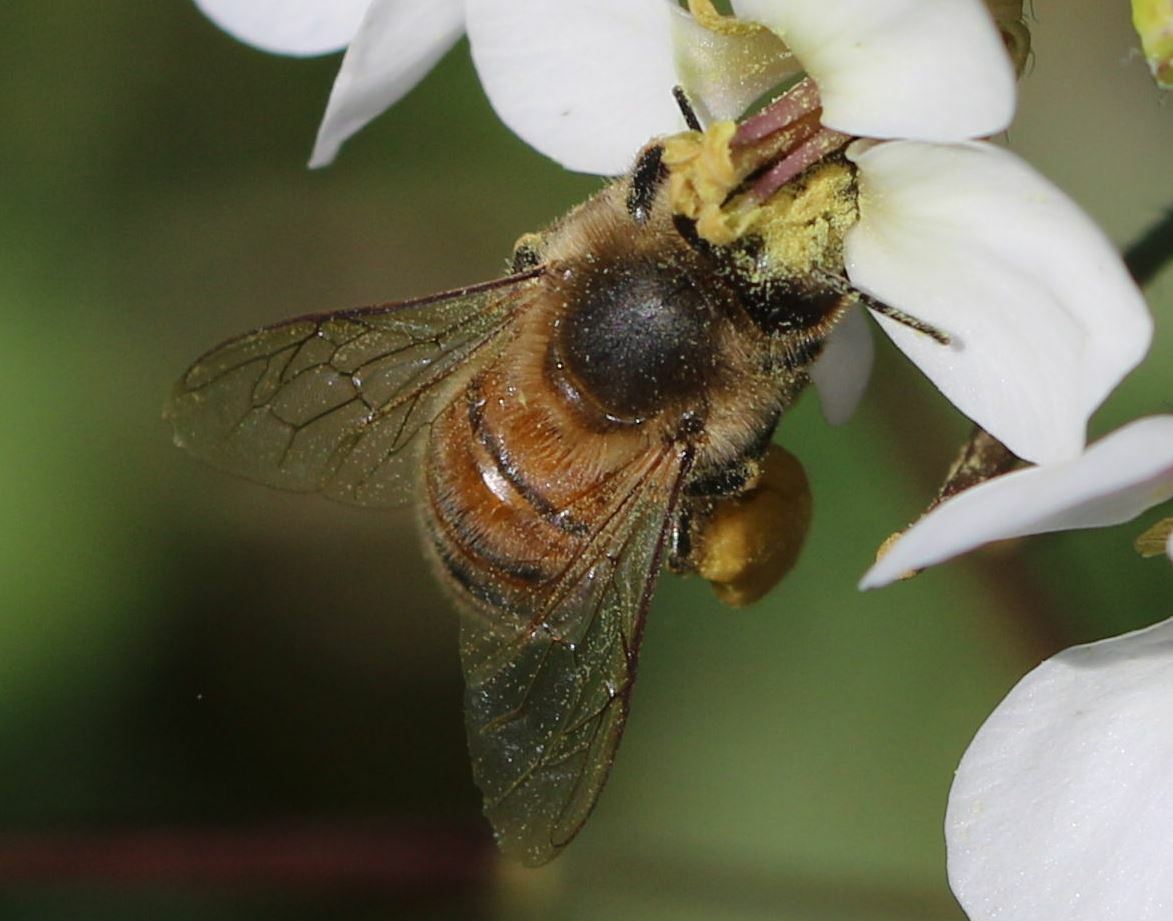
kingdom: Animalia
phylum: Arthropoda
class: Insecta
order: Hymenoptera
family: Apidae
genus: Apis
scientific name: Apis mellifera
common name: Honey bee
